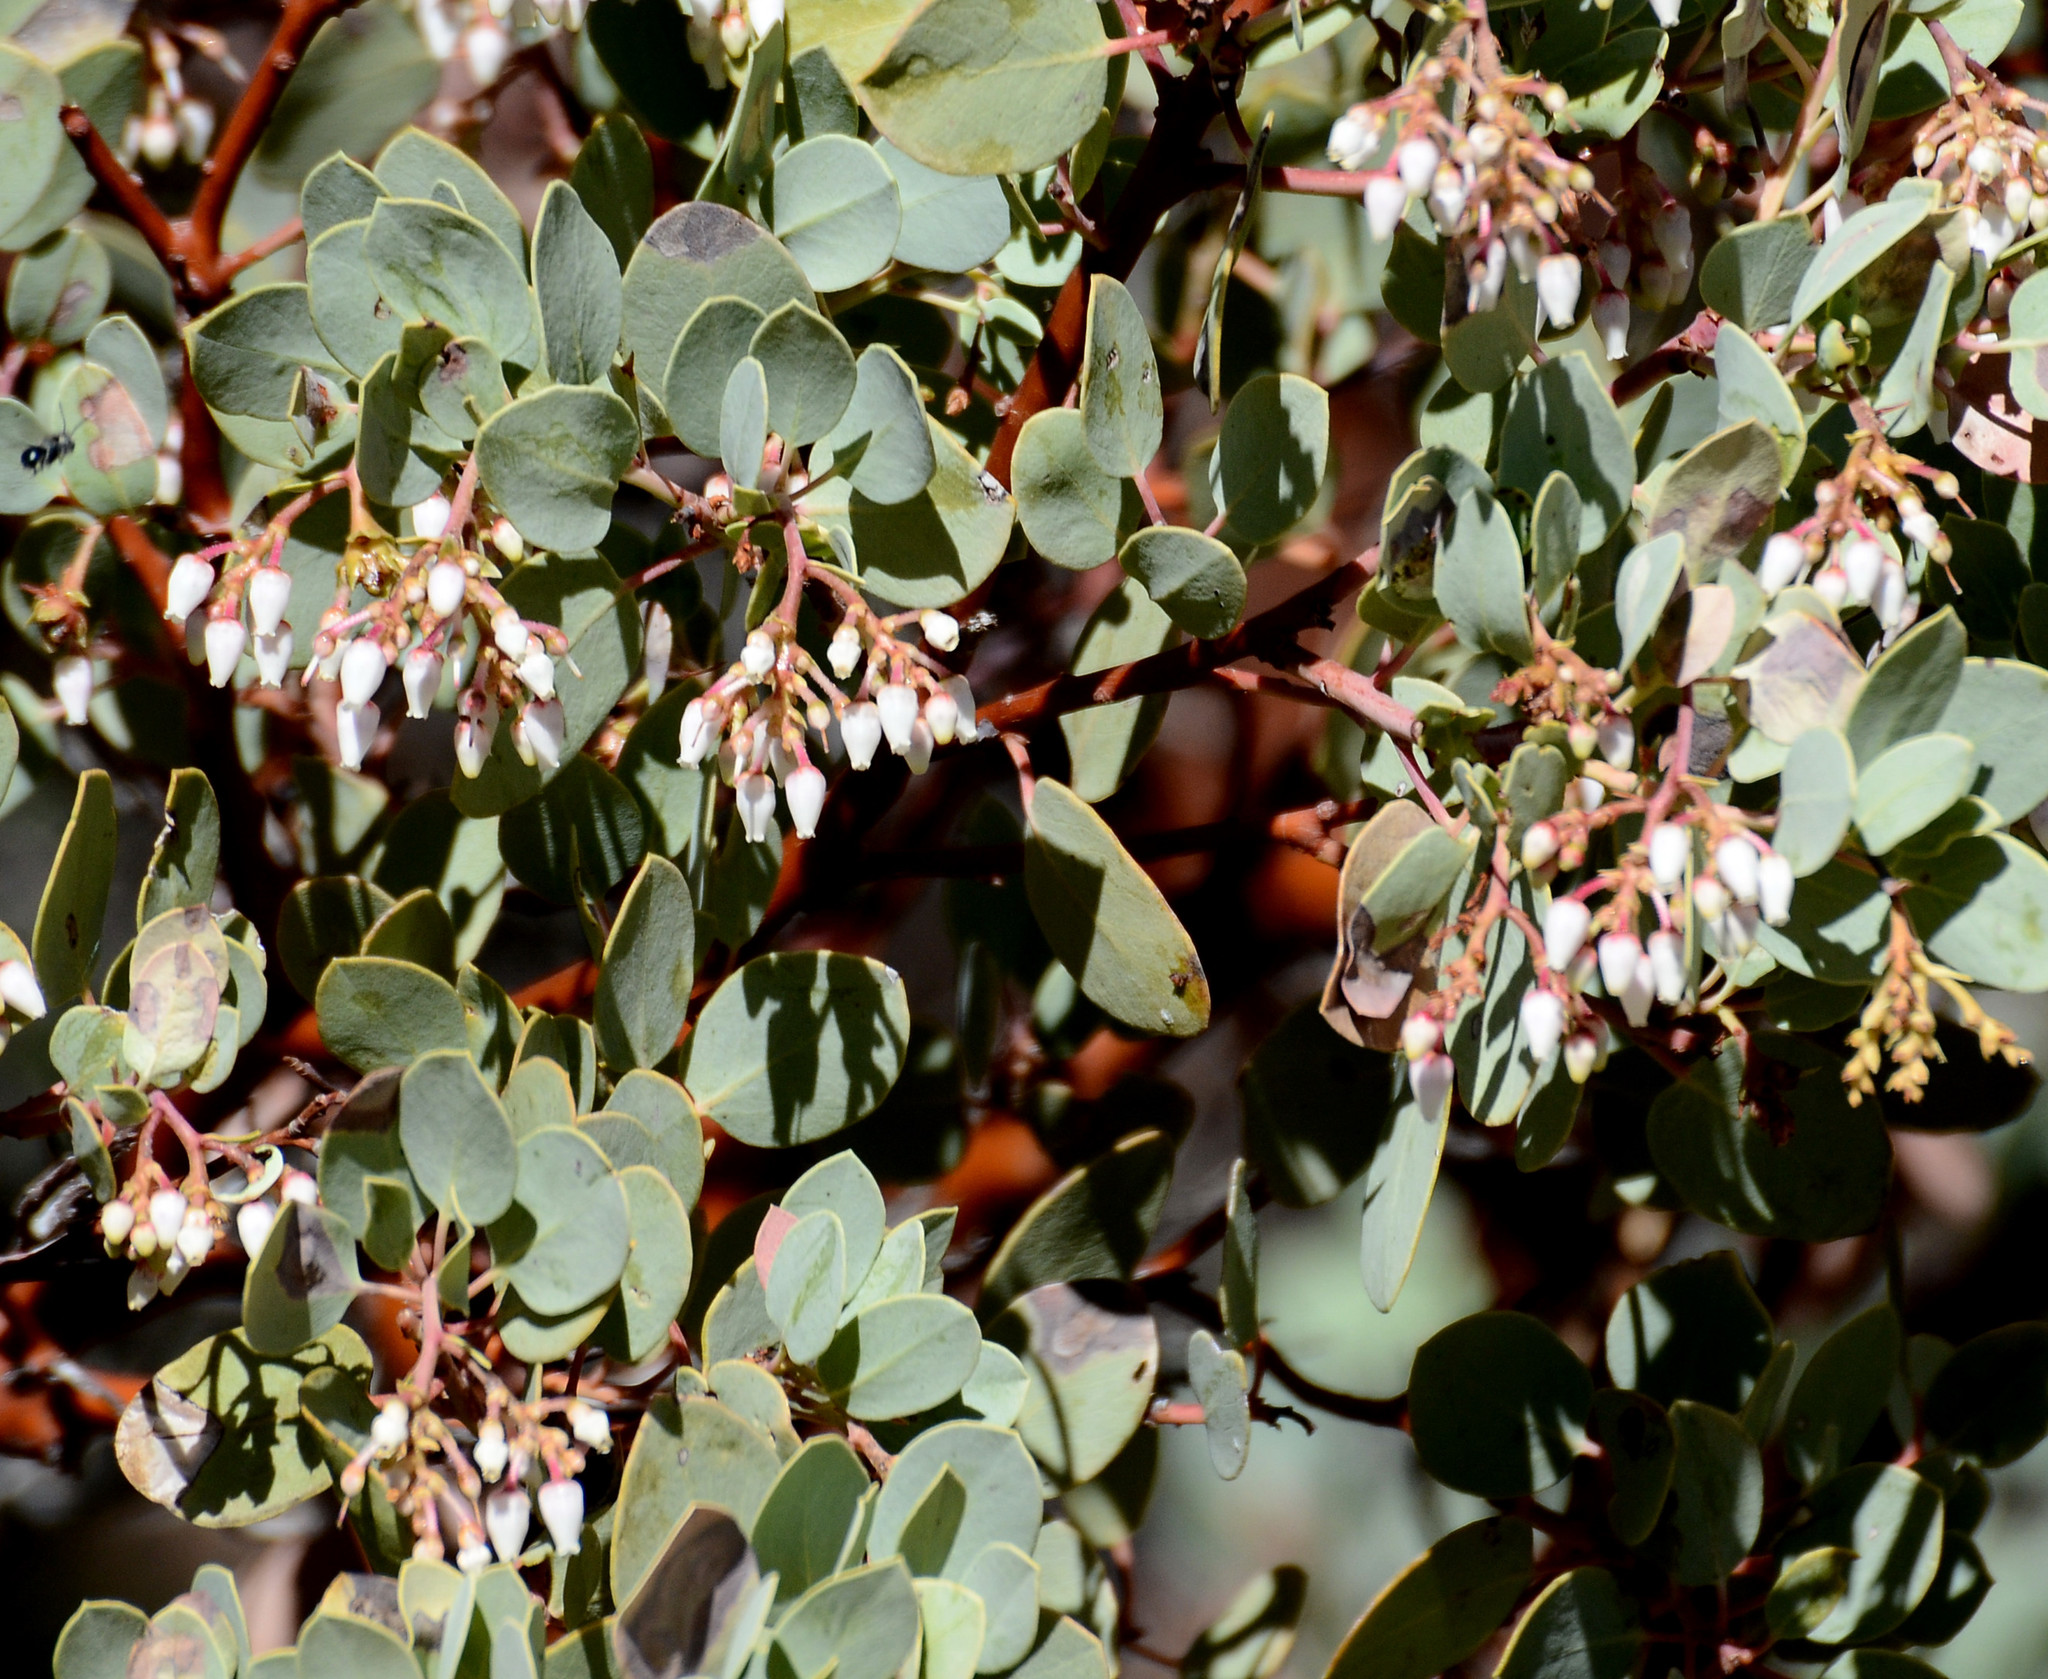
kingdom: Plantae
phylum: Tracheophyta
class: Magnoliopsida
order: Ericales
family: Ericaceae
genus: Arctostaphylos
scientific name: Arctostaphylos glauca
